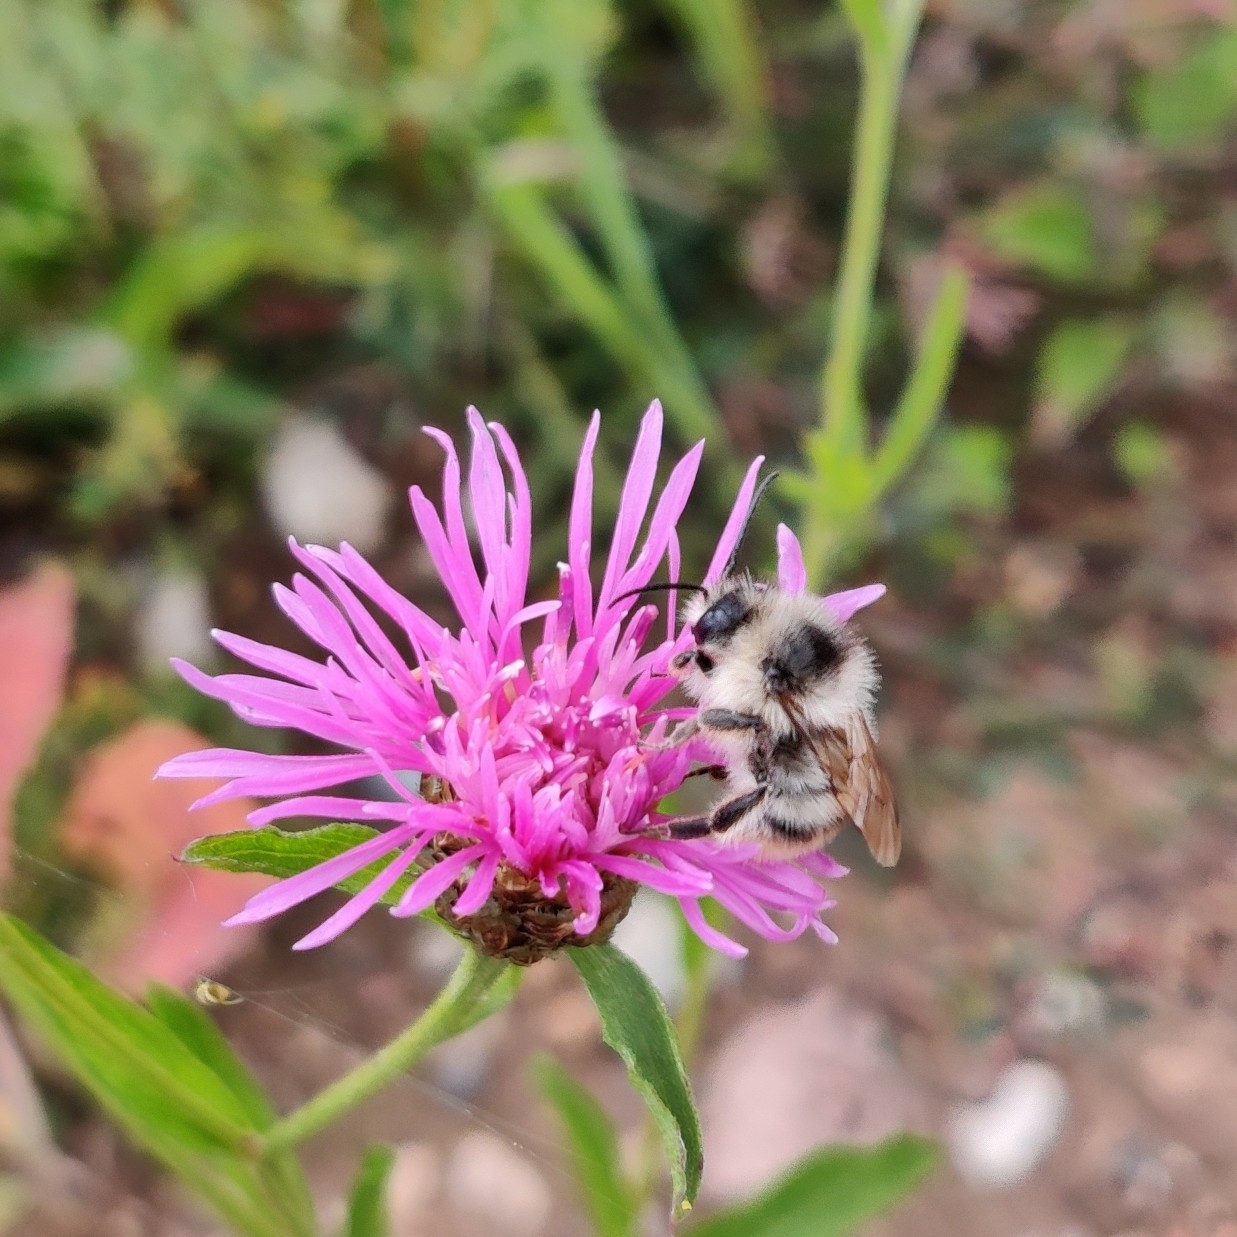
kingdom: Animalia
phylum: Arthropoda
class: Insecta
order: Hymenoptera
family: Apidae
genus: Bombus
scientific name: Bombus sylvarum
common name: Shrill carder bee
